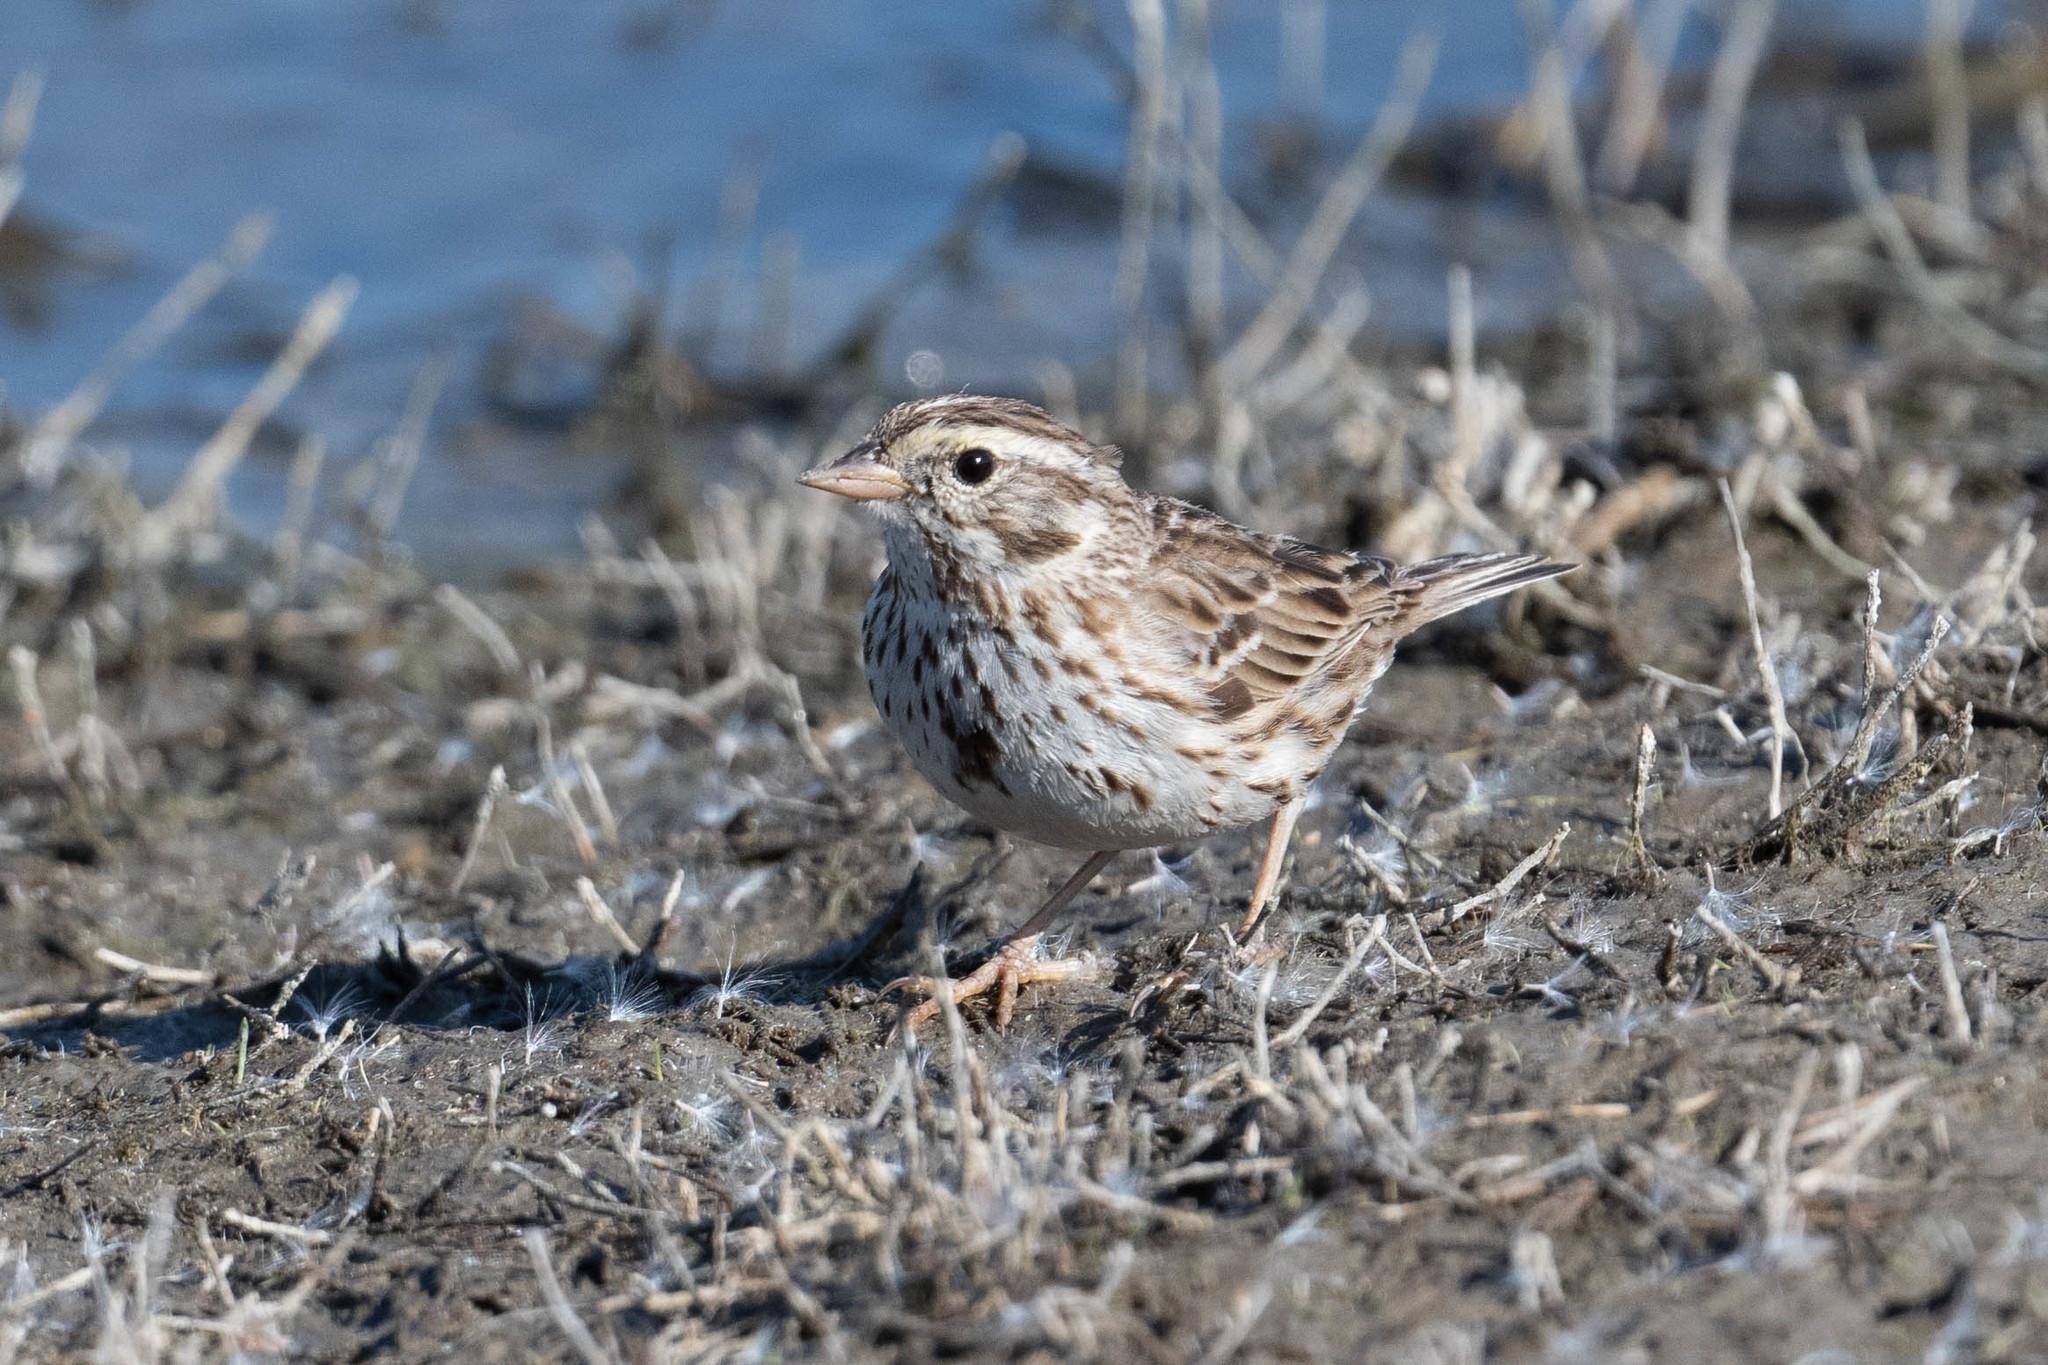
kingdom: Animalia
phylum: Chordata
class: Aves
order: Passeriformes
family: Passerellidae
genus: Passerculus
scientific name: Passerculus sandwichensis
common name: Savannah sparrow
